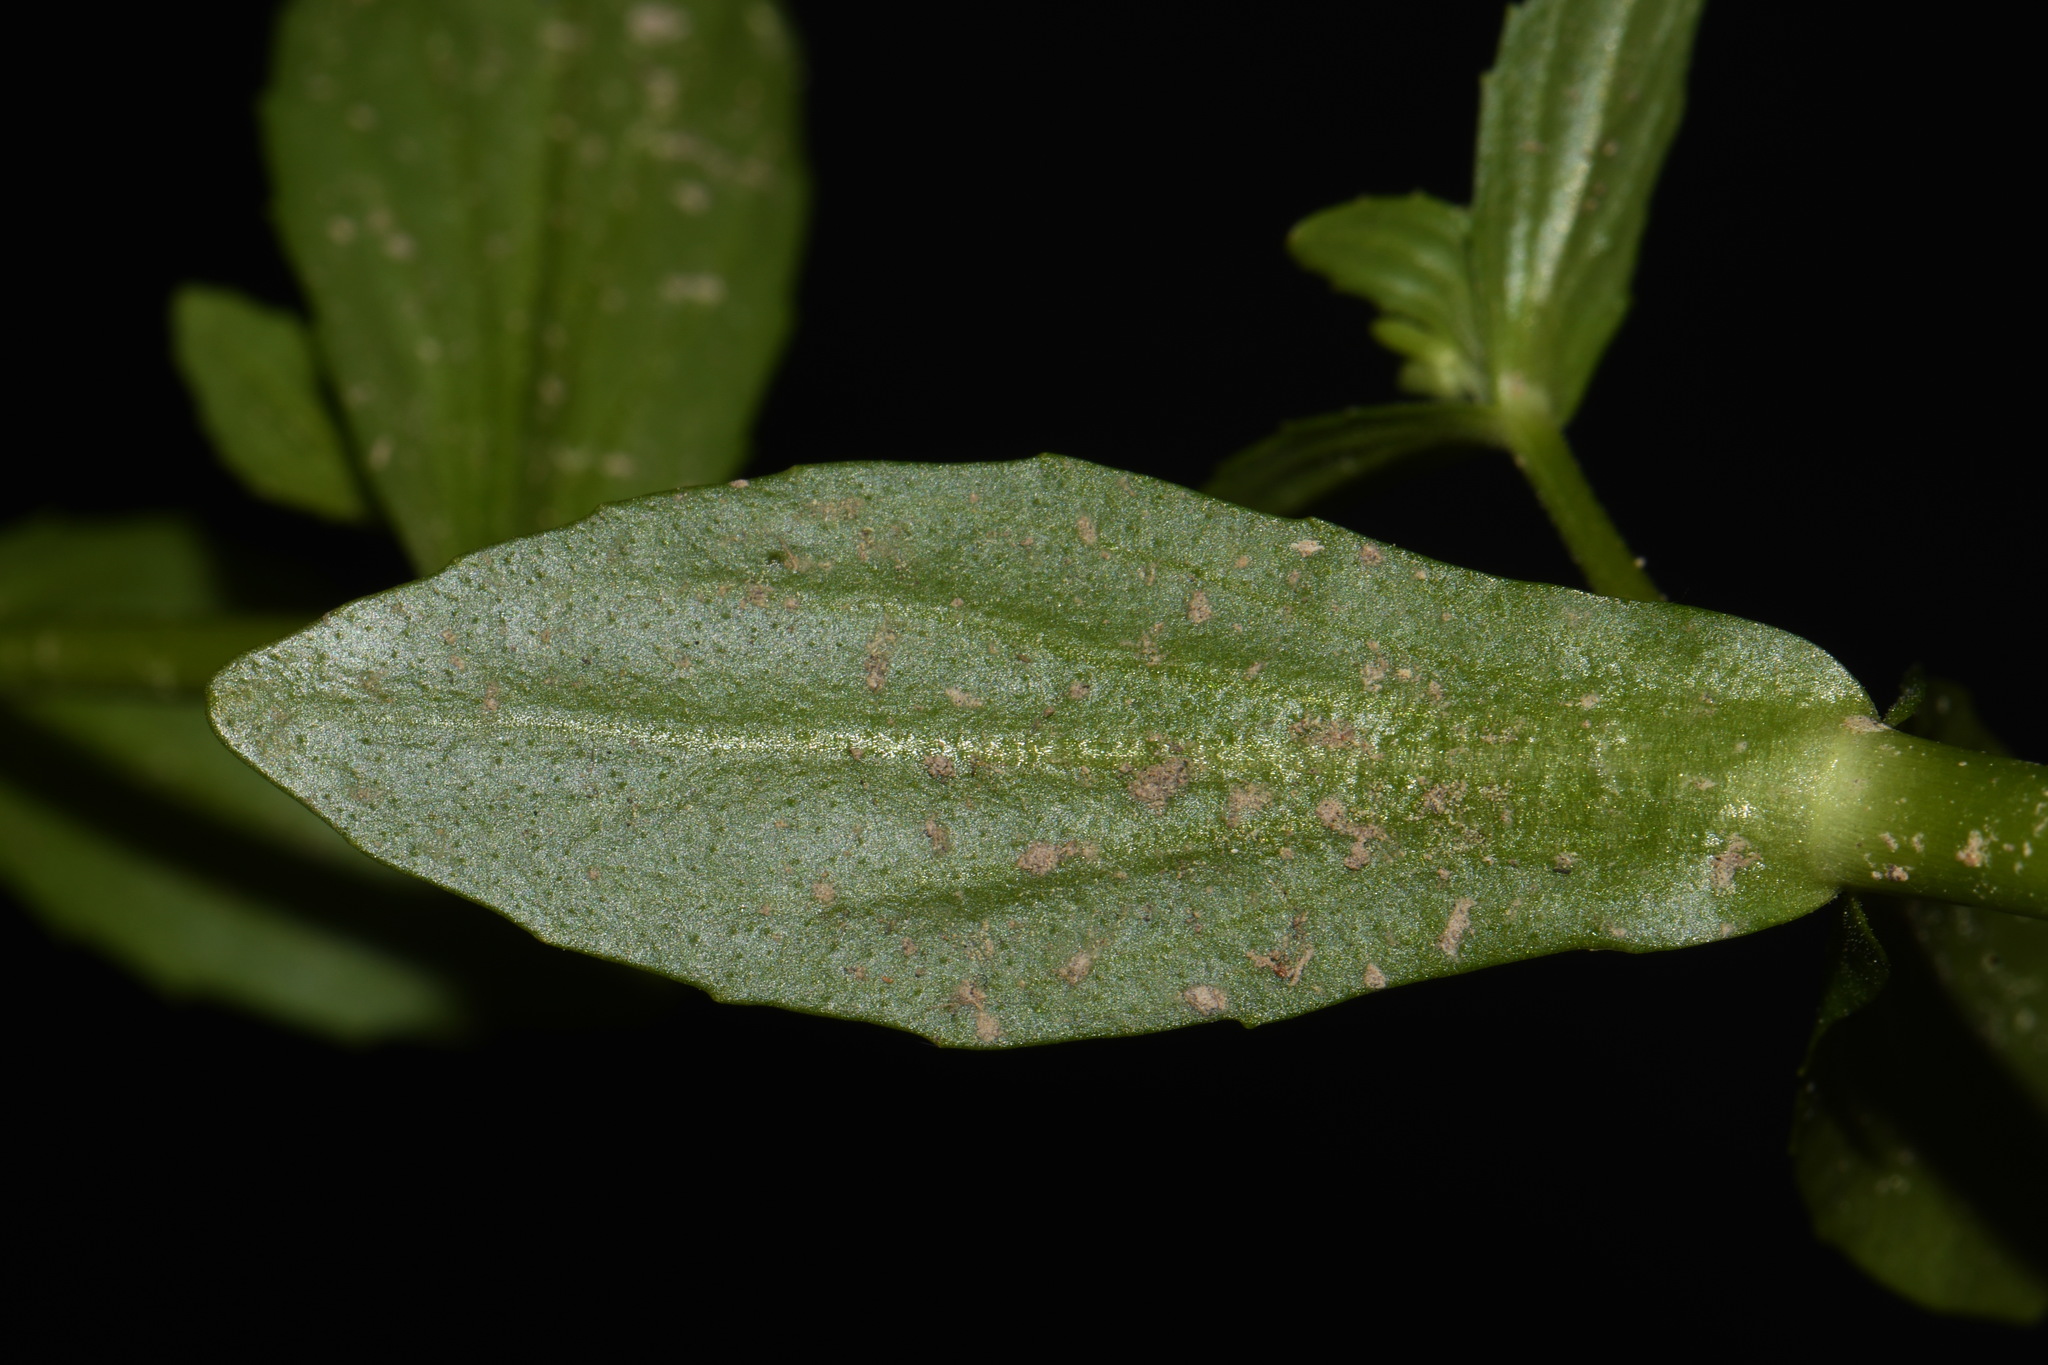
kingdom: Plantae
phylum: Tracheophyta
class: Magnoliopsida
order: Lamiales
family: Plantaginaceae
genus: Gratiola
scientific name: Gratiola floridana
